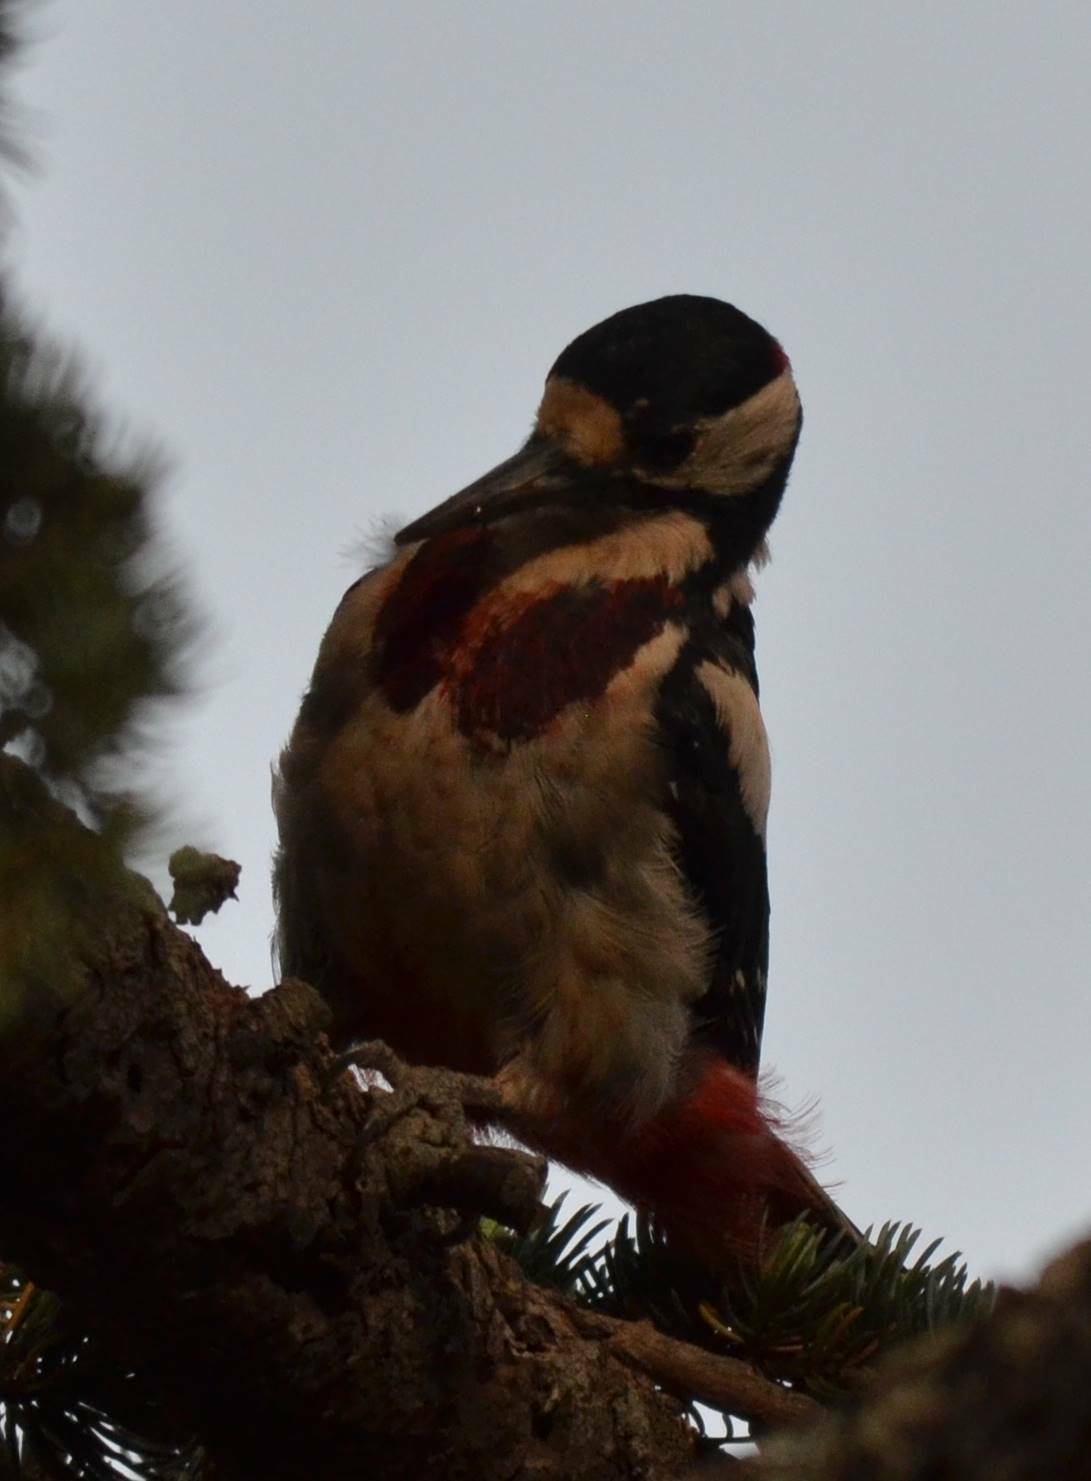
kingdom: Animalia
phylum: Chordata
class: Aves
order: Piciformes
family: Picidae
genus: Dendrocopos
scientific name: Dendrocopos major
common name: Great spotted woodpecker
